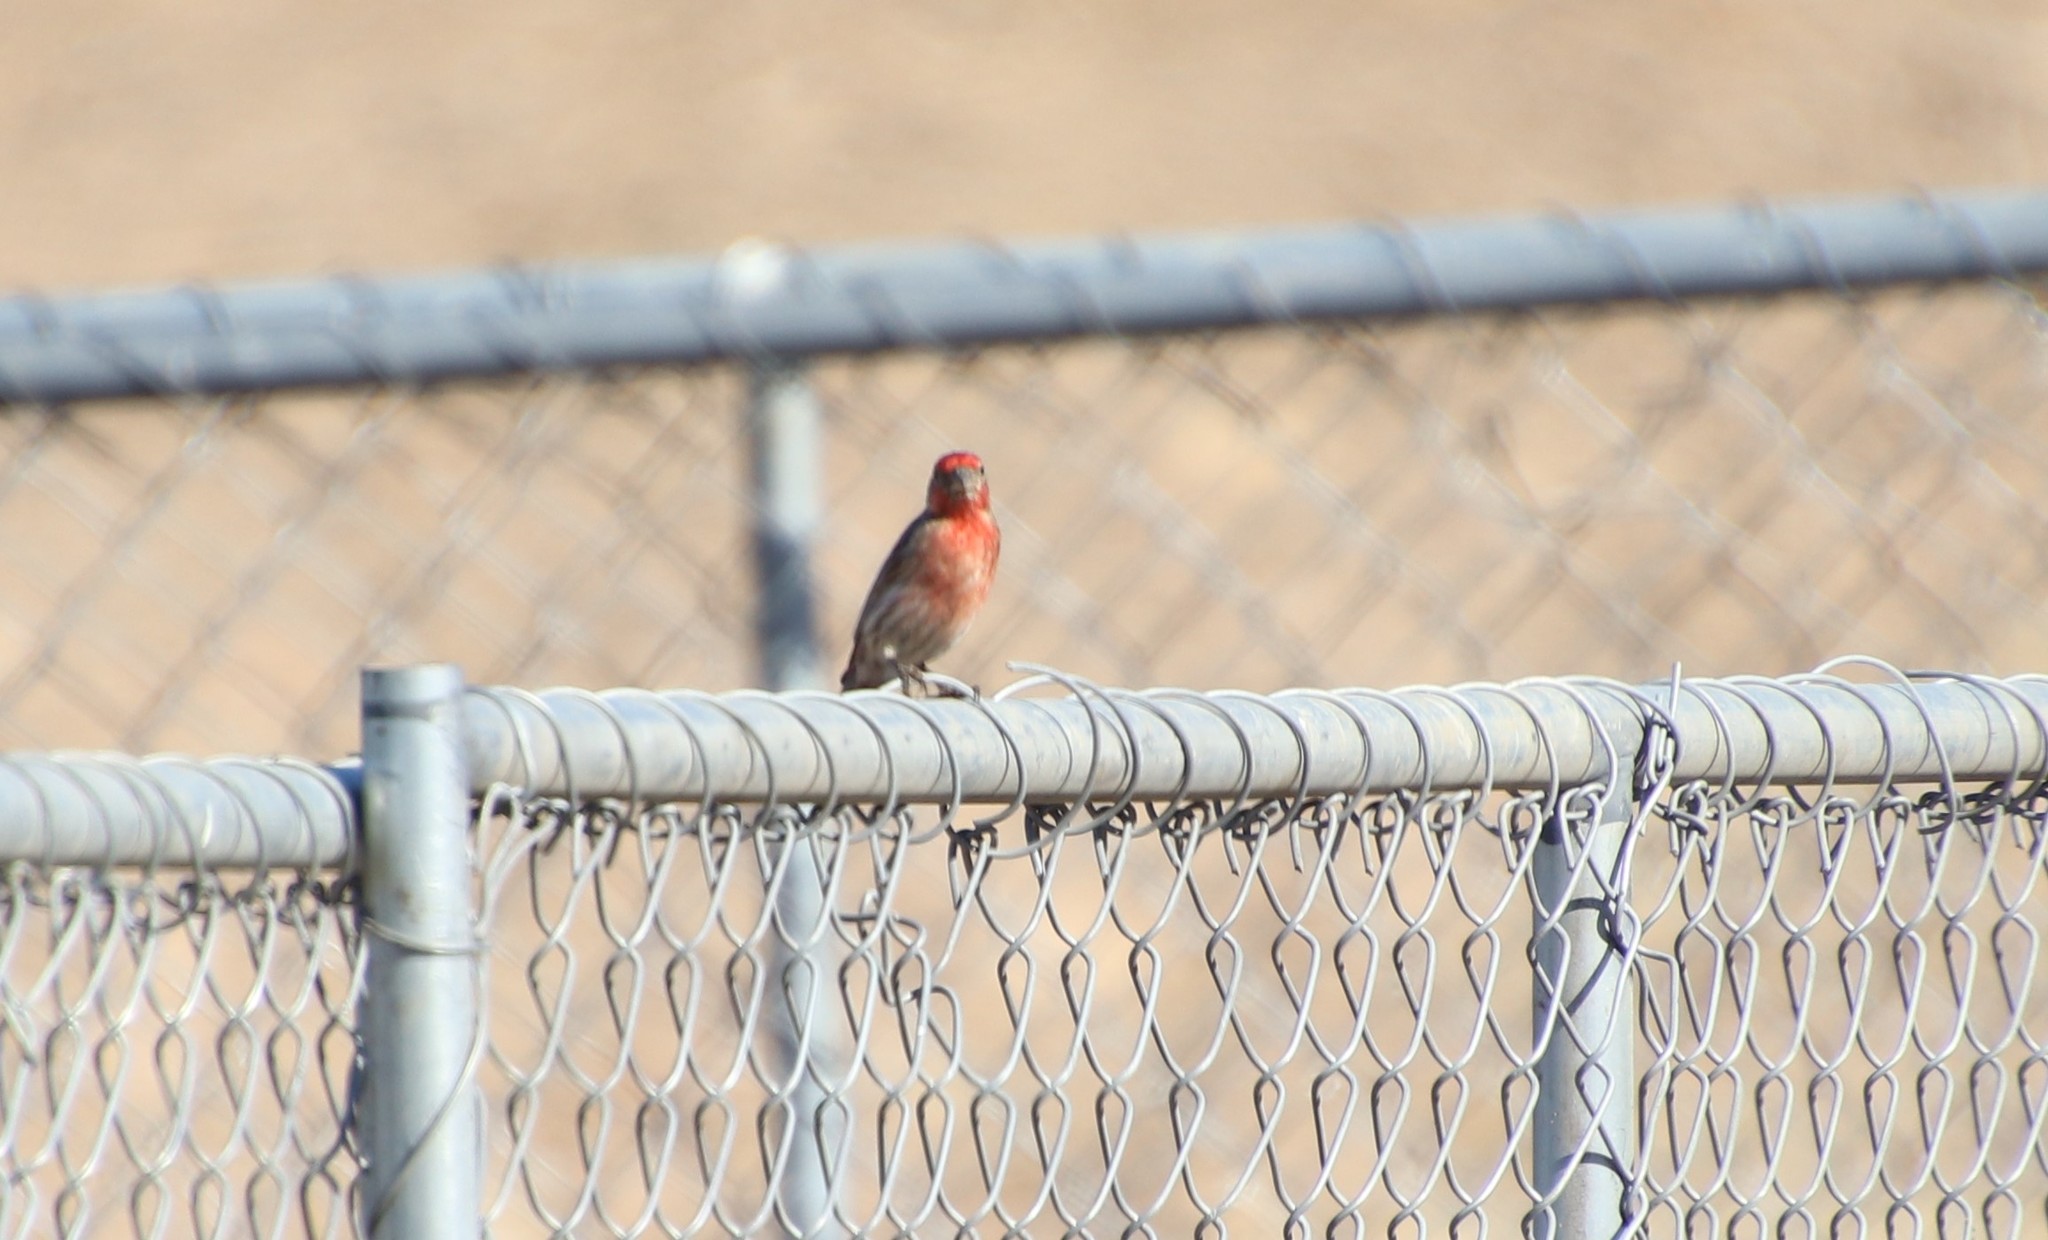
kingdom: Animalia
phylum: Chordata
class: Aves
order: Passeriformes
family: Fringillidae
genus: Haemorhous
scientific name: Haemorhous mexicanus
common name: House finch
